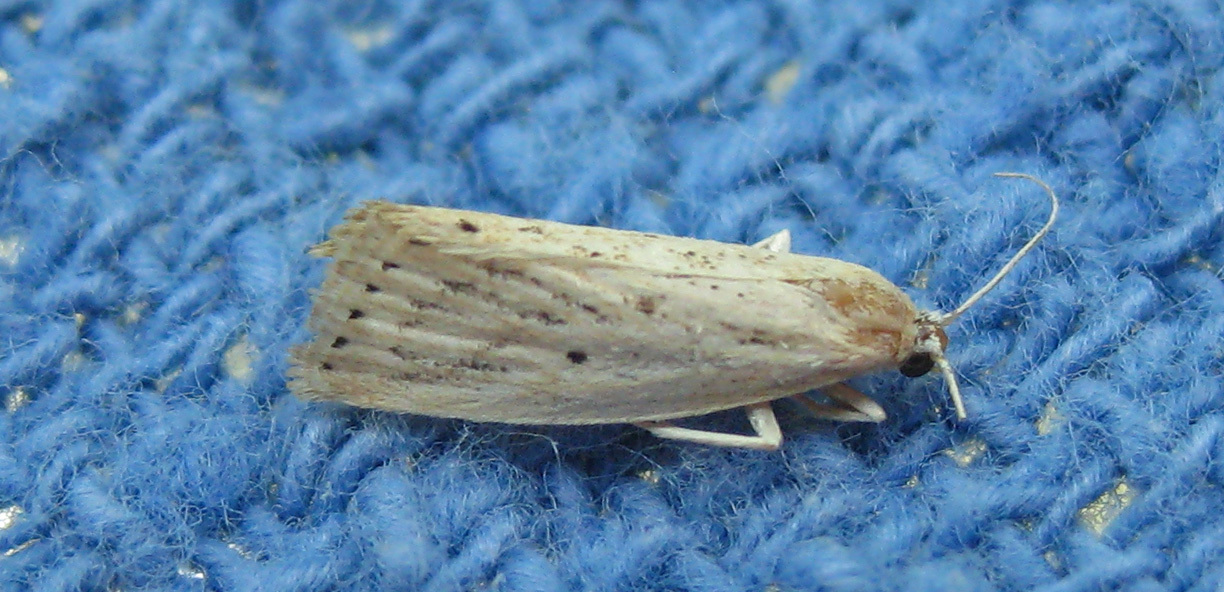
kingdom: Animalia
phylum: Arthropoda
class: Insecta
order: Lepidoptera
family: Crambidae
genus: Diatraea
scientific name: Diatraea lisetta
